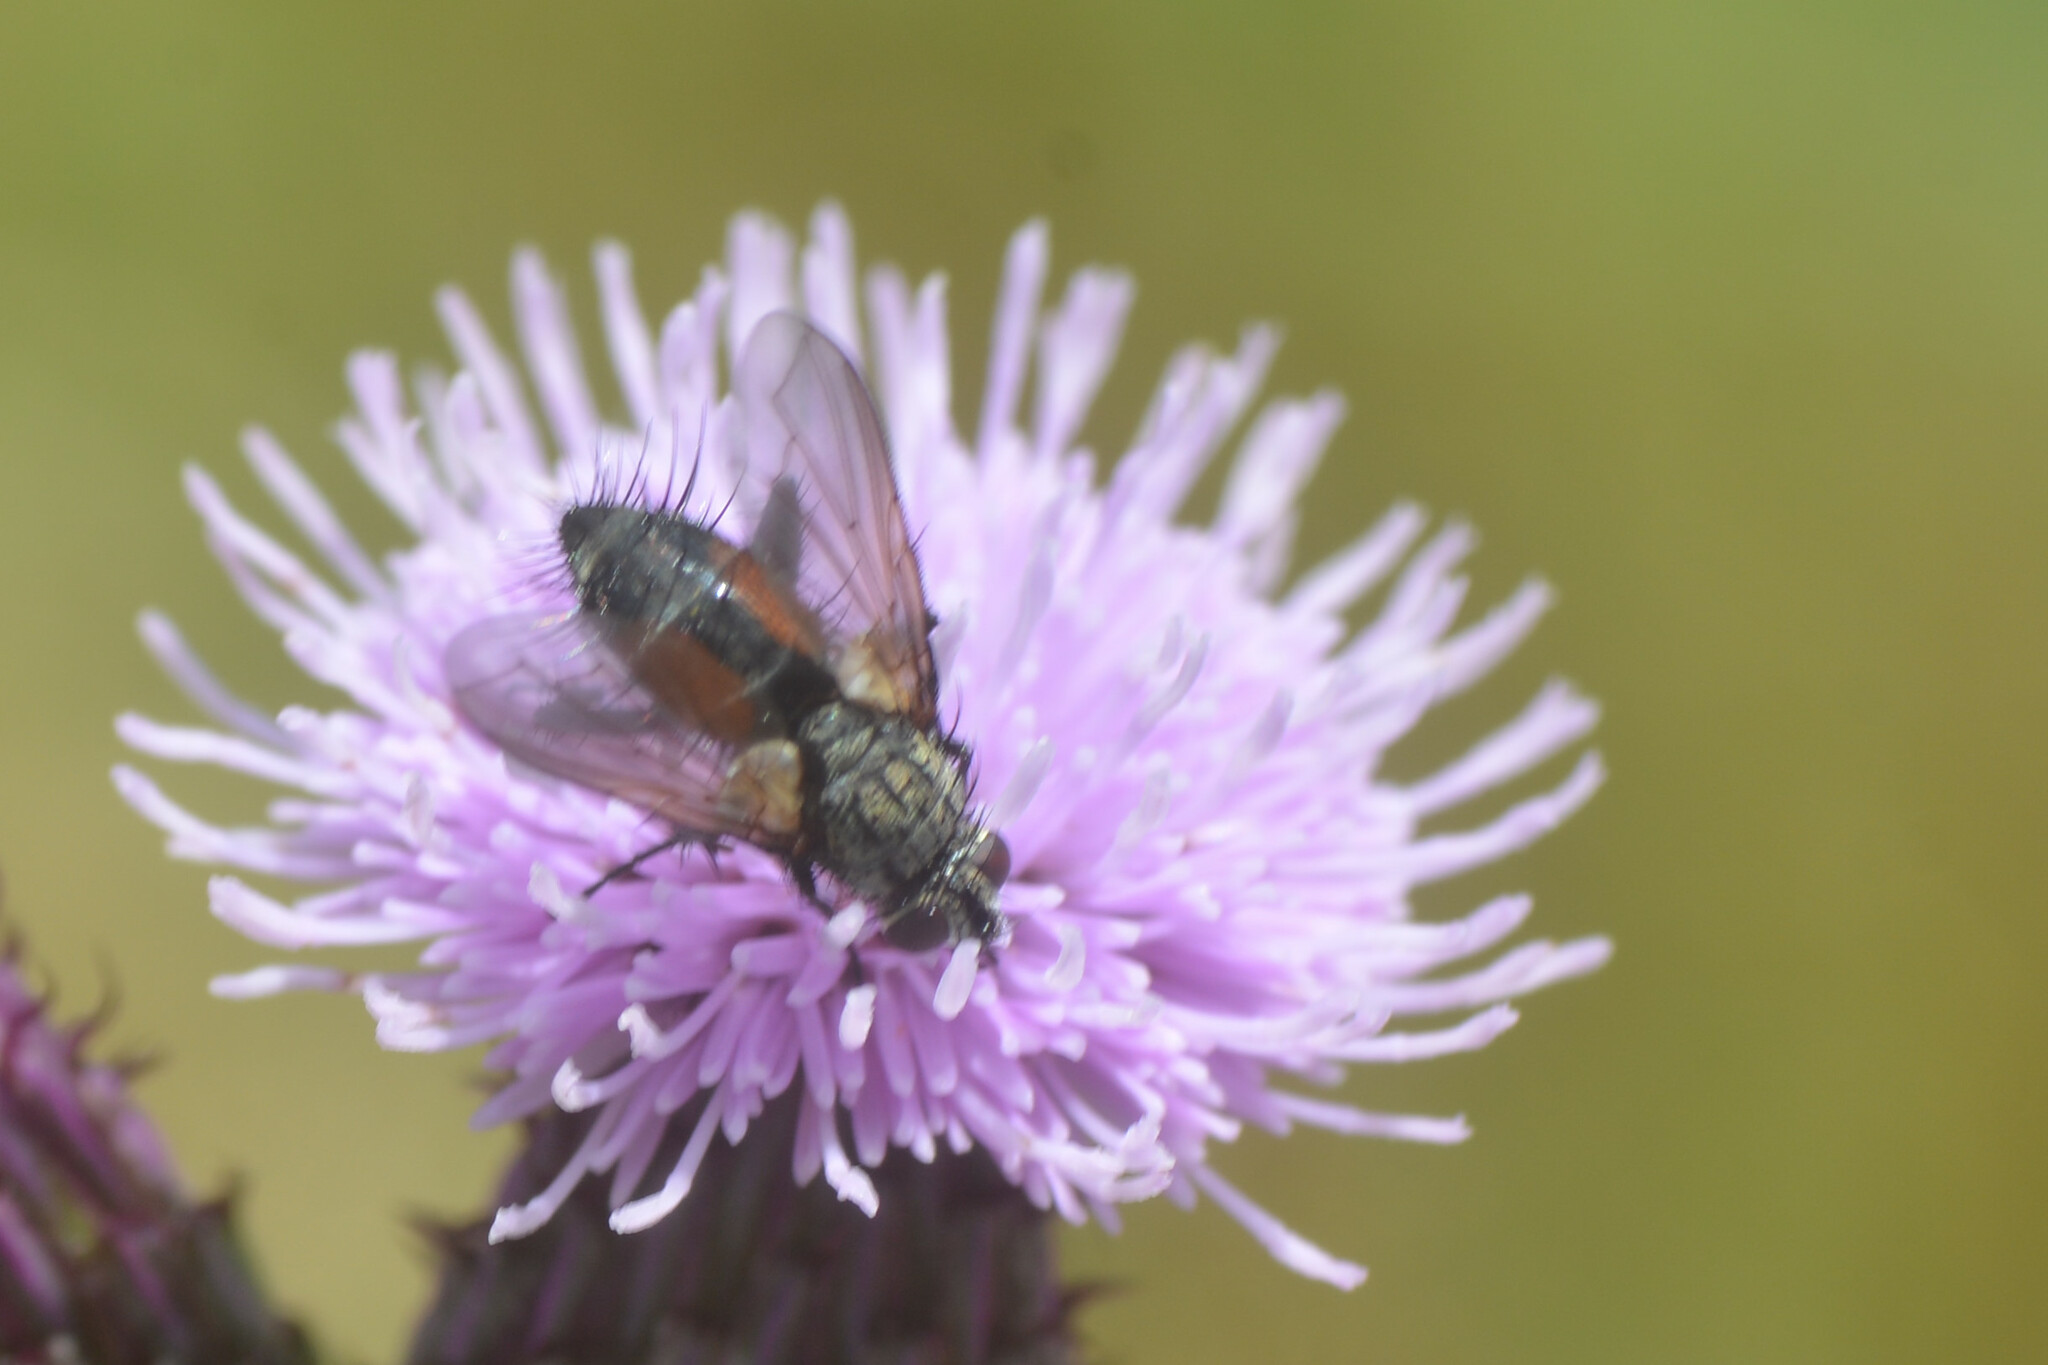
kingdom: Animalia
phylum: Arthropoda
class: Insecta
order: Diptera
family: Tachinidae
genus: Eriothrix
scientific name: Eriothrix rufomaculatus
